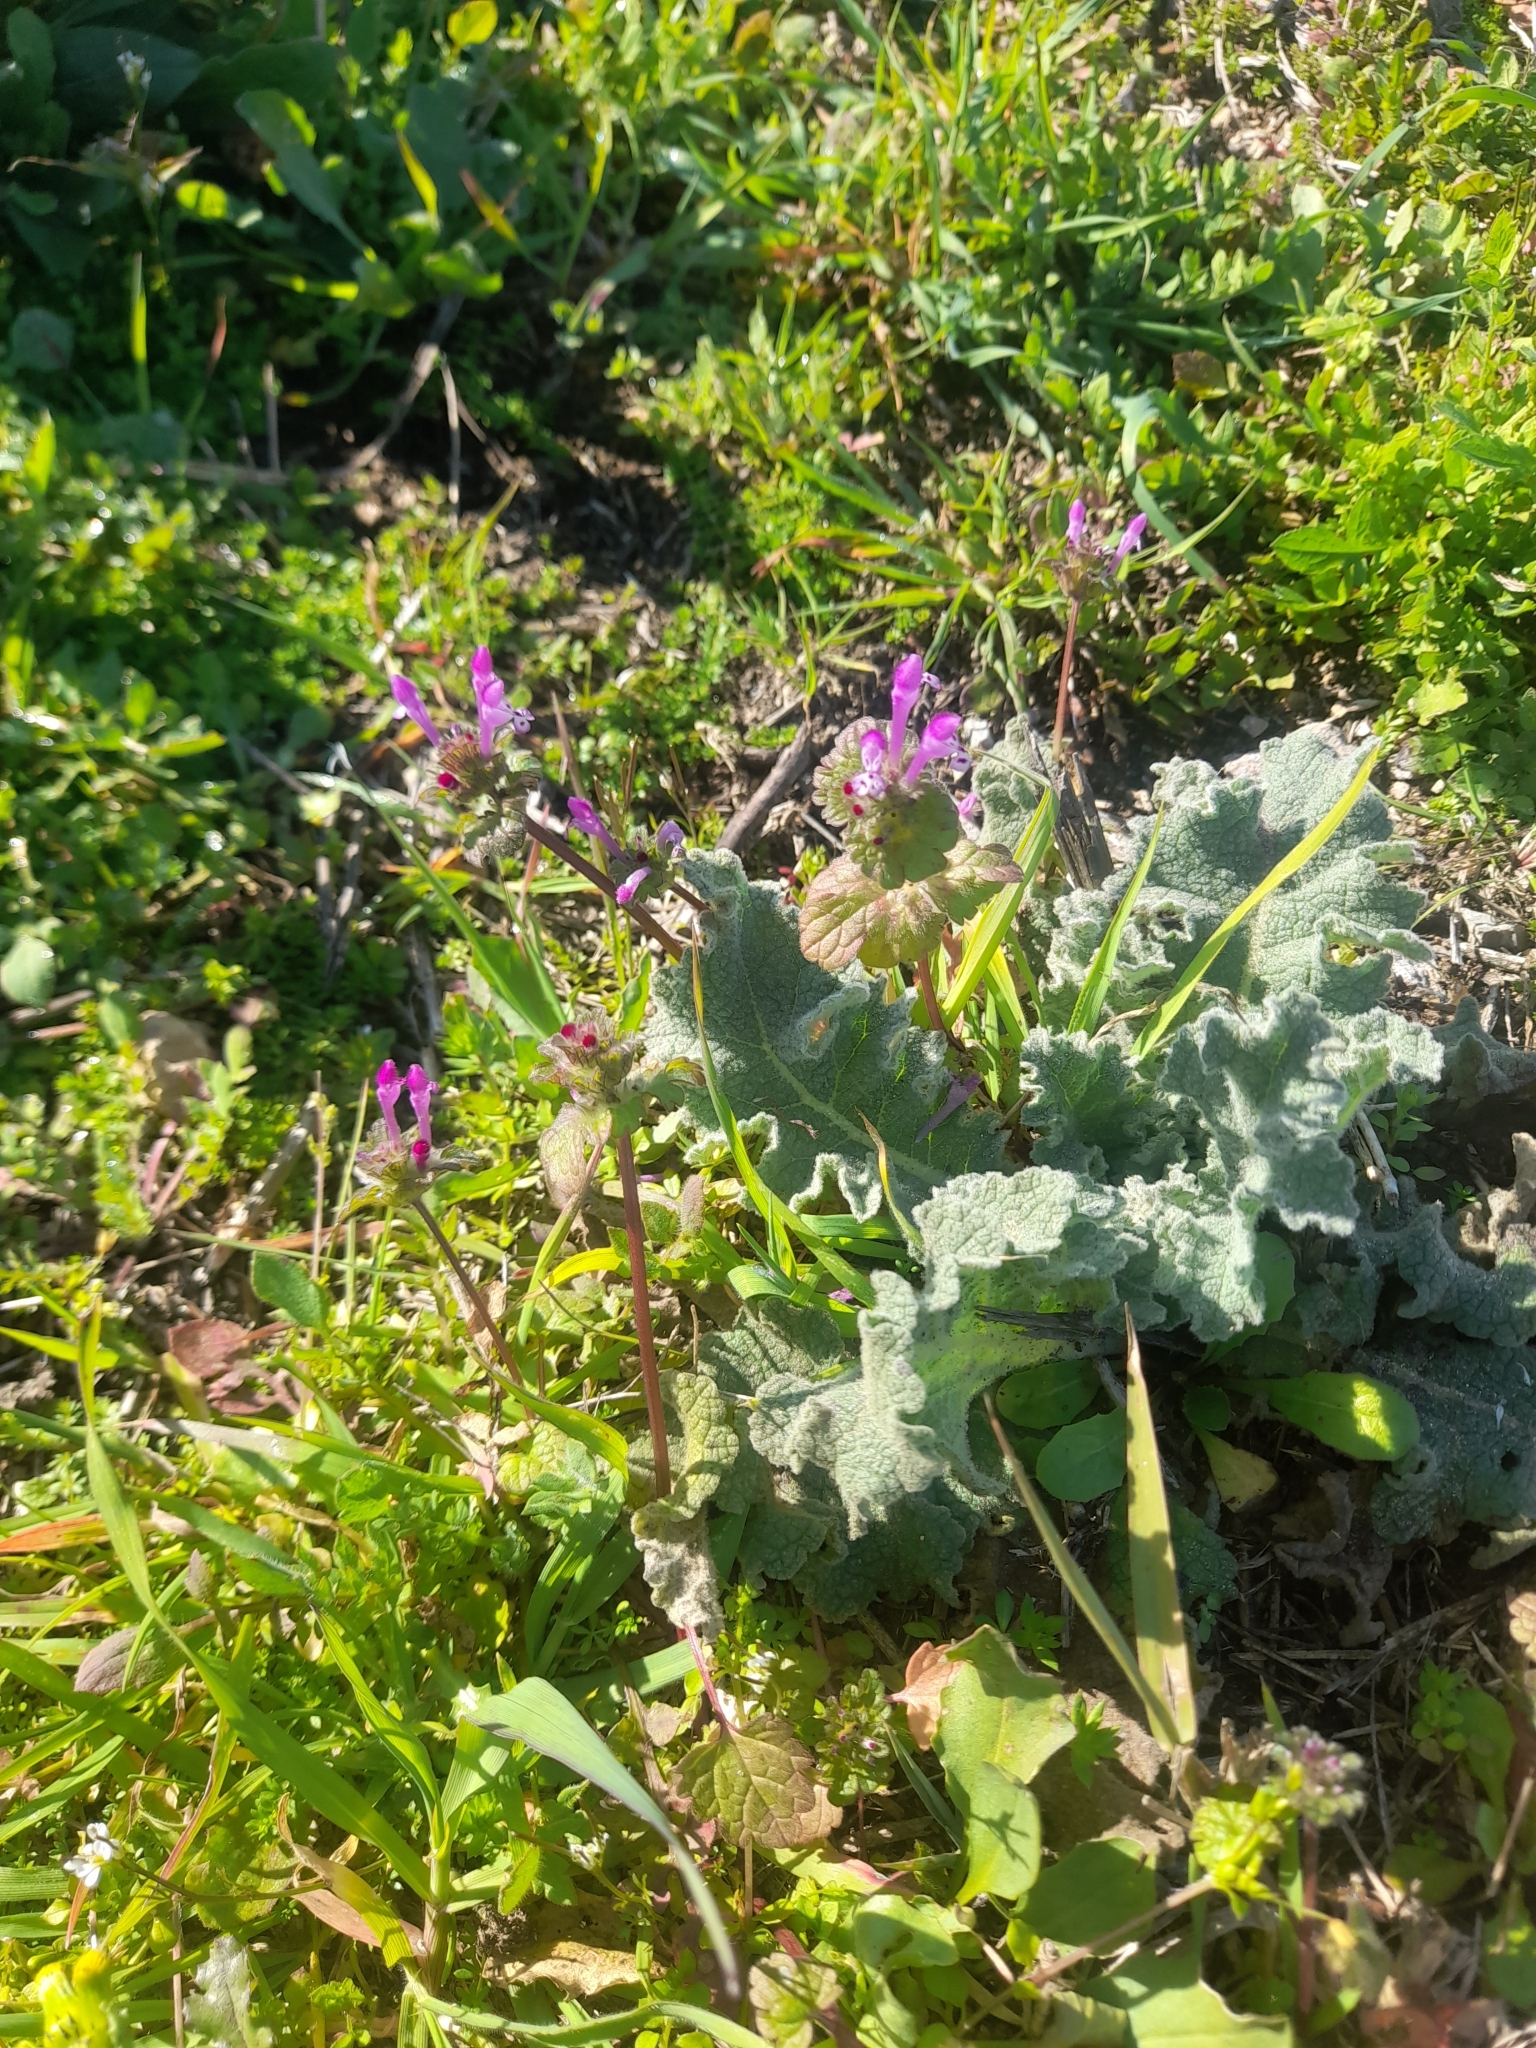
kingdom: Plantae
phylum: Tracheophyta
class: Magnoliopsida
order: Lamiales
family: Lamiaceae
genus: Lamium
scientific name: Lamium amplexicaule
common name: Henbit dead-nettle
